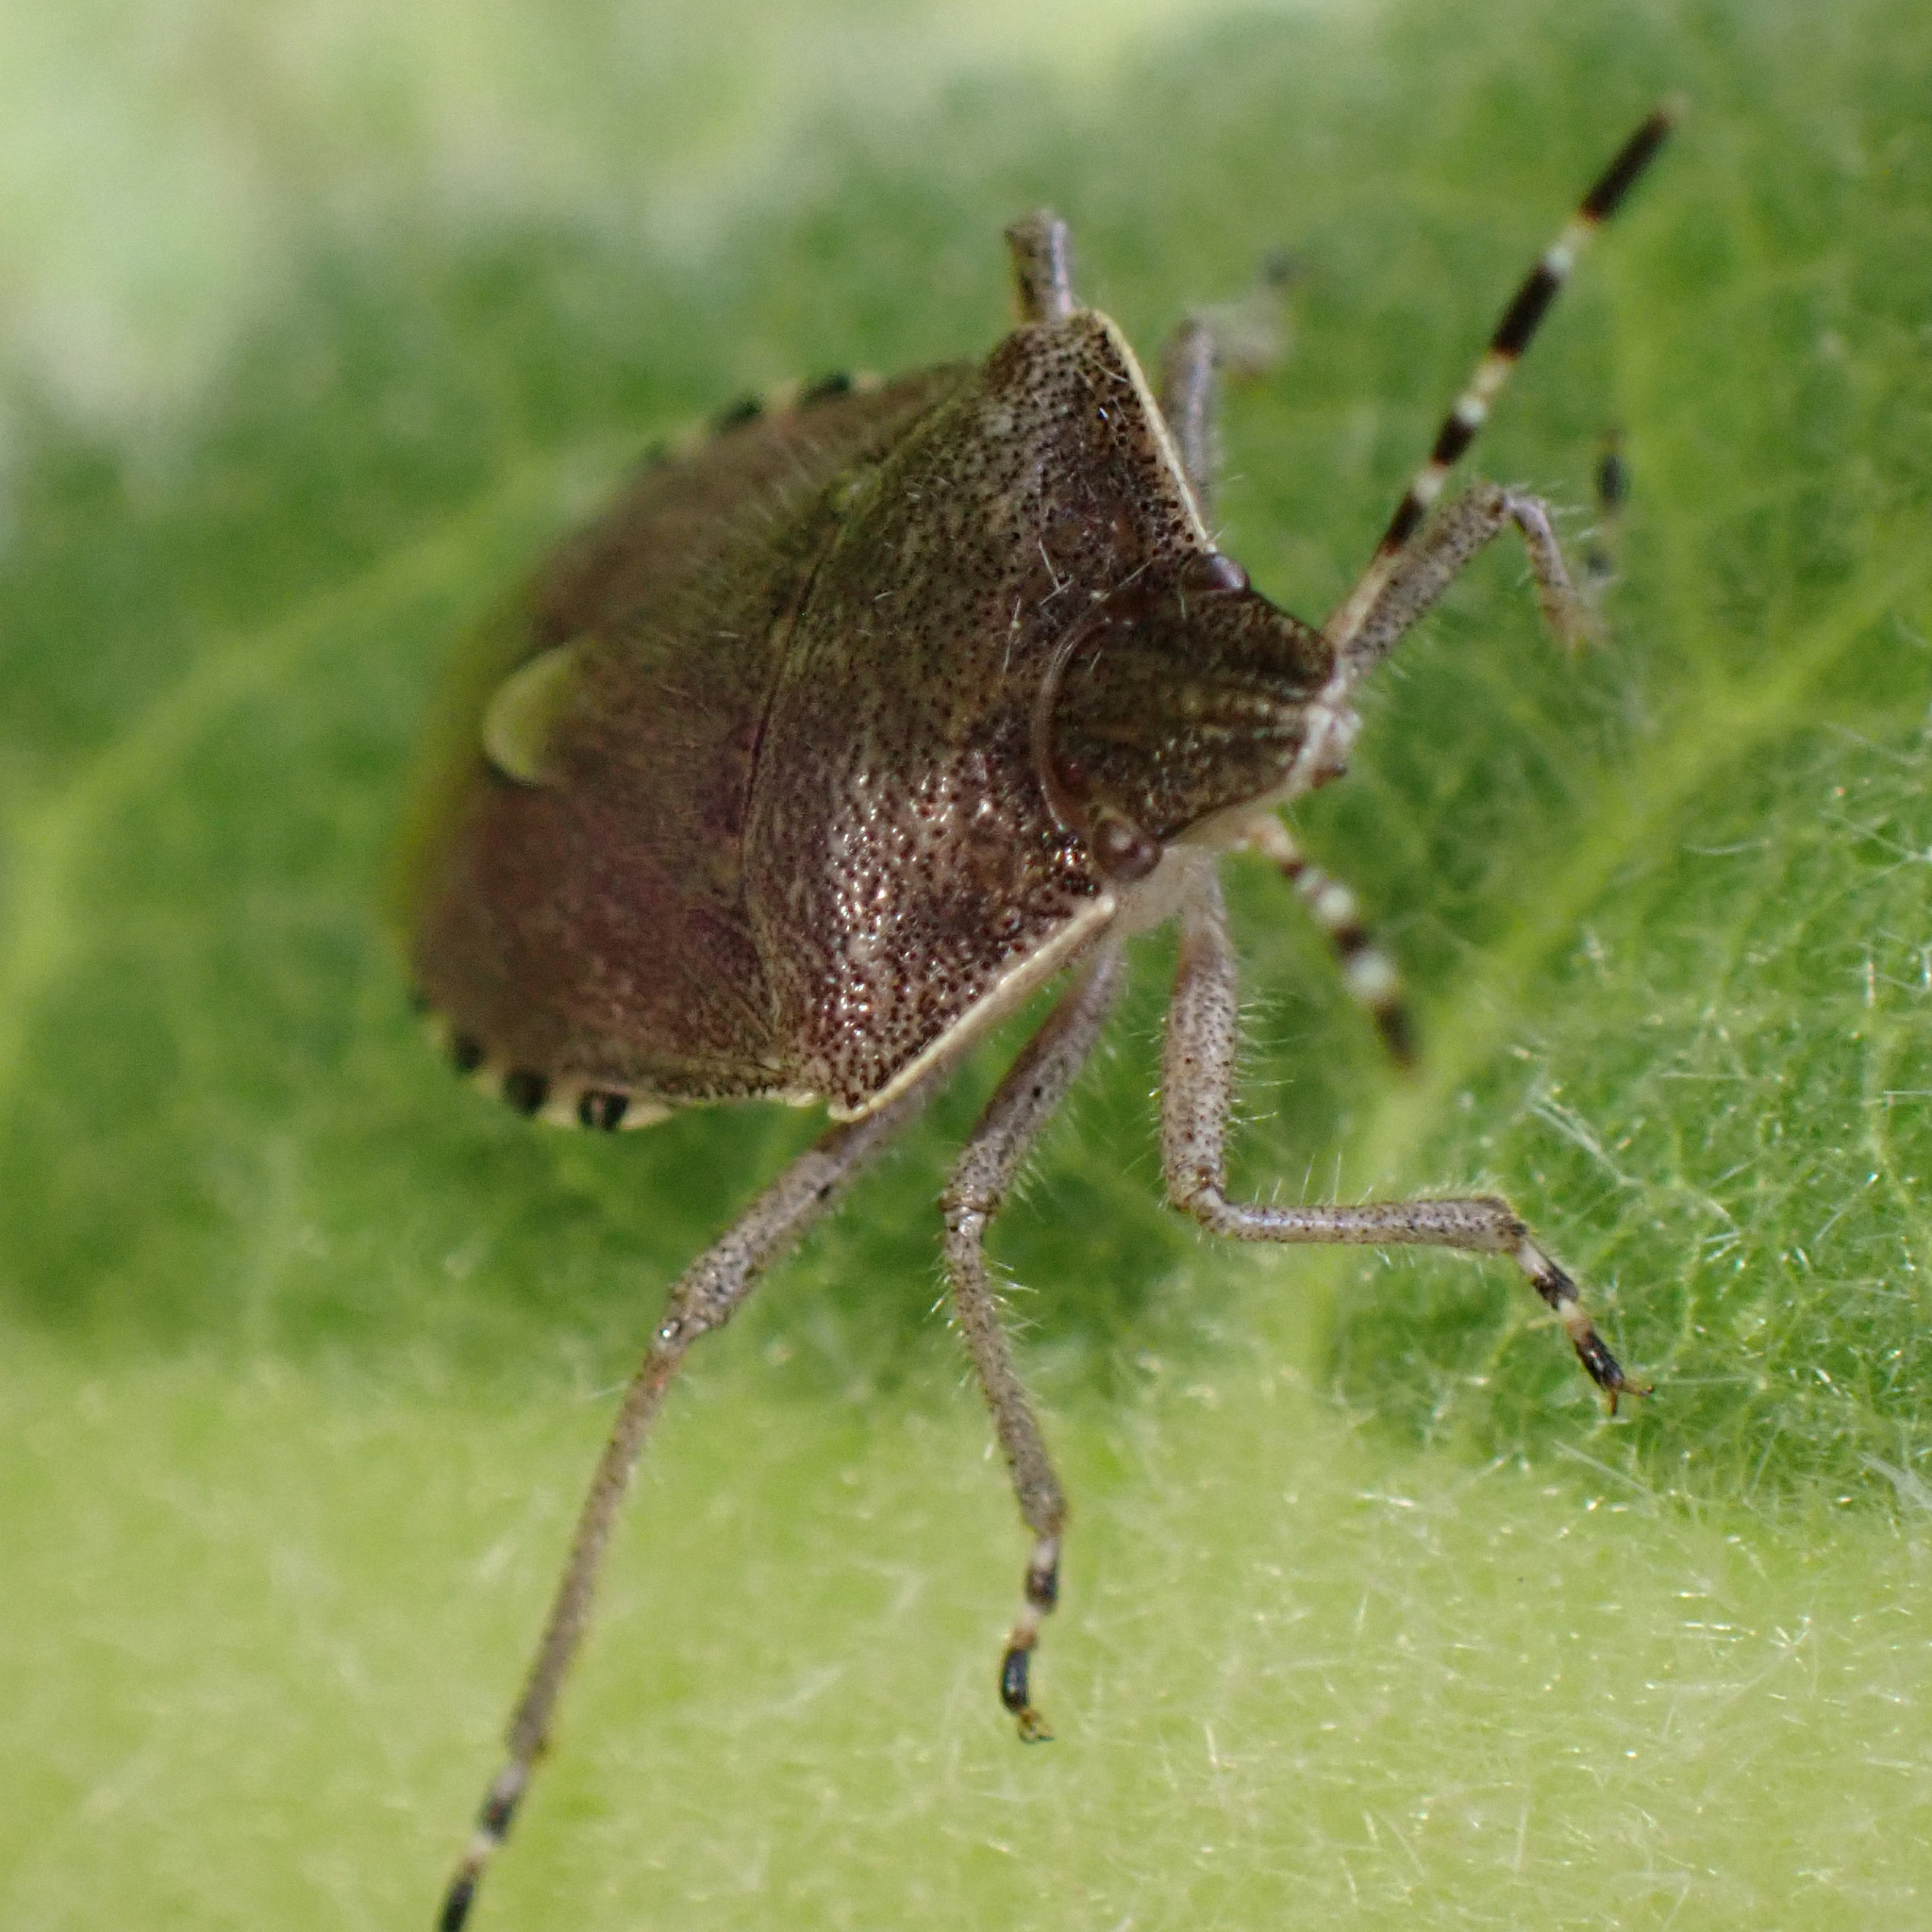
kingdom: Animalia
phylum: Arthropoda
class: Insecta
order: Hemiptera
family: Pentatomidae
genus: Dolycoris
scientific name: Dolycoris baccarum
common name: Sloe bug
